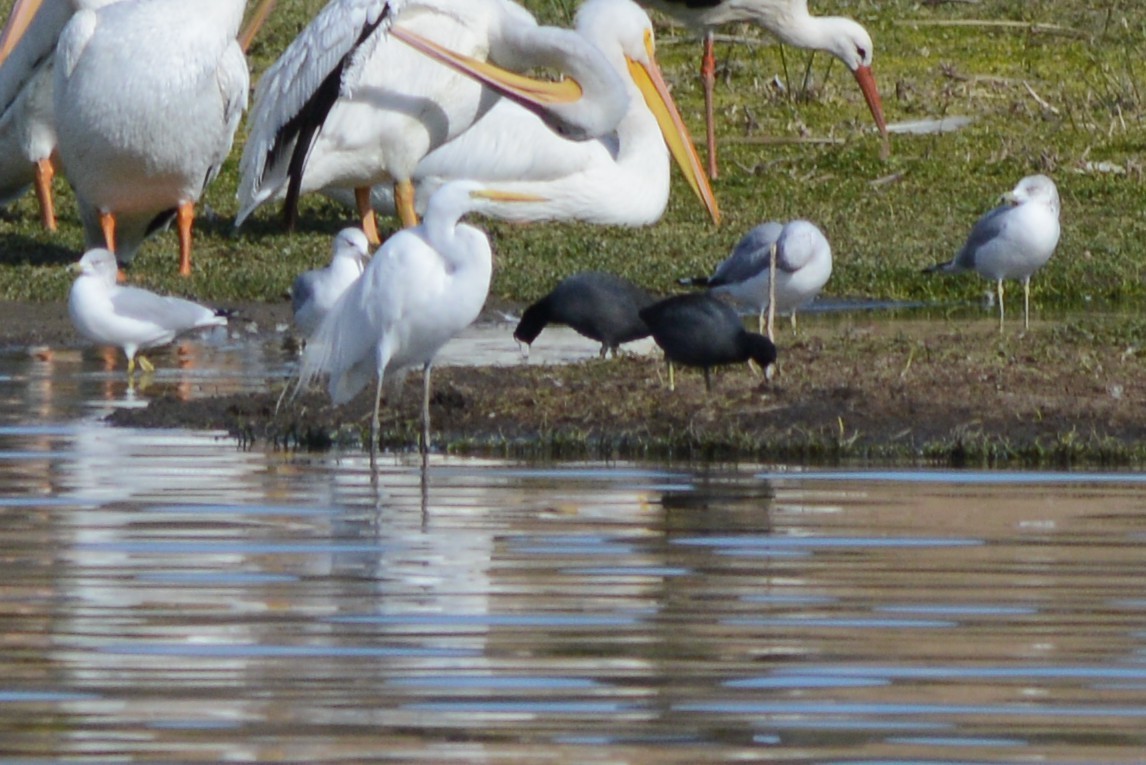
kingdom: Animalia
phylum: Chordata
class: Aves
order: Charadriiformes
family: Laridae
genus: Larus
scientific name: Larus delawarensis
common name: Ring-billed gull
